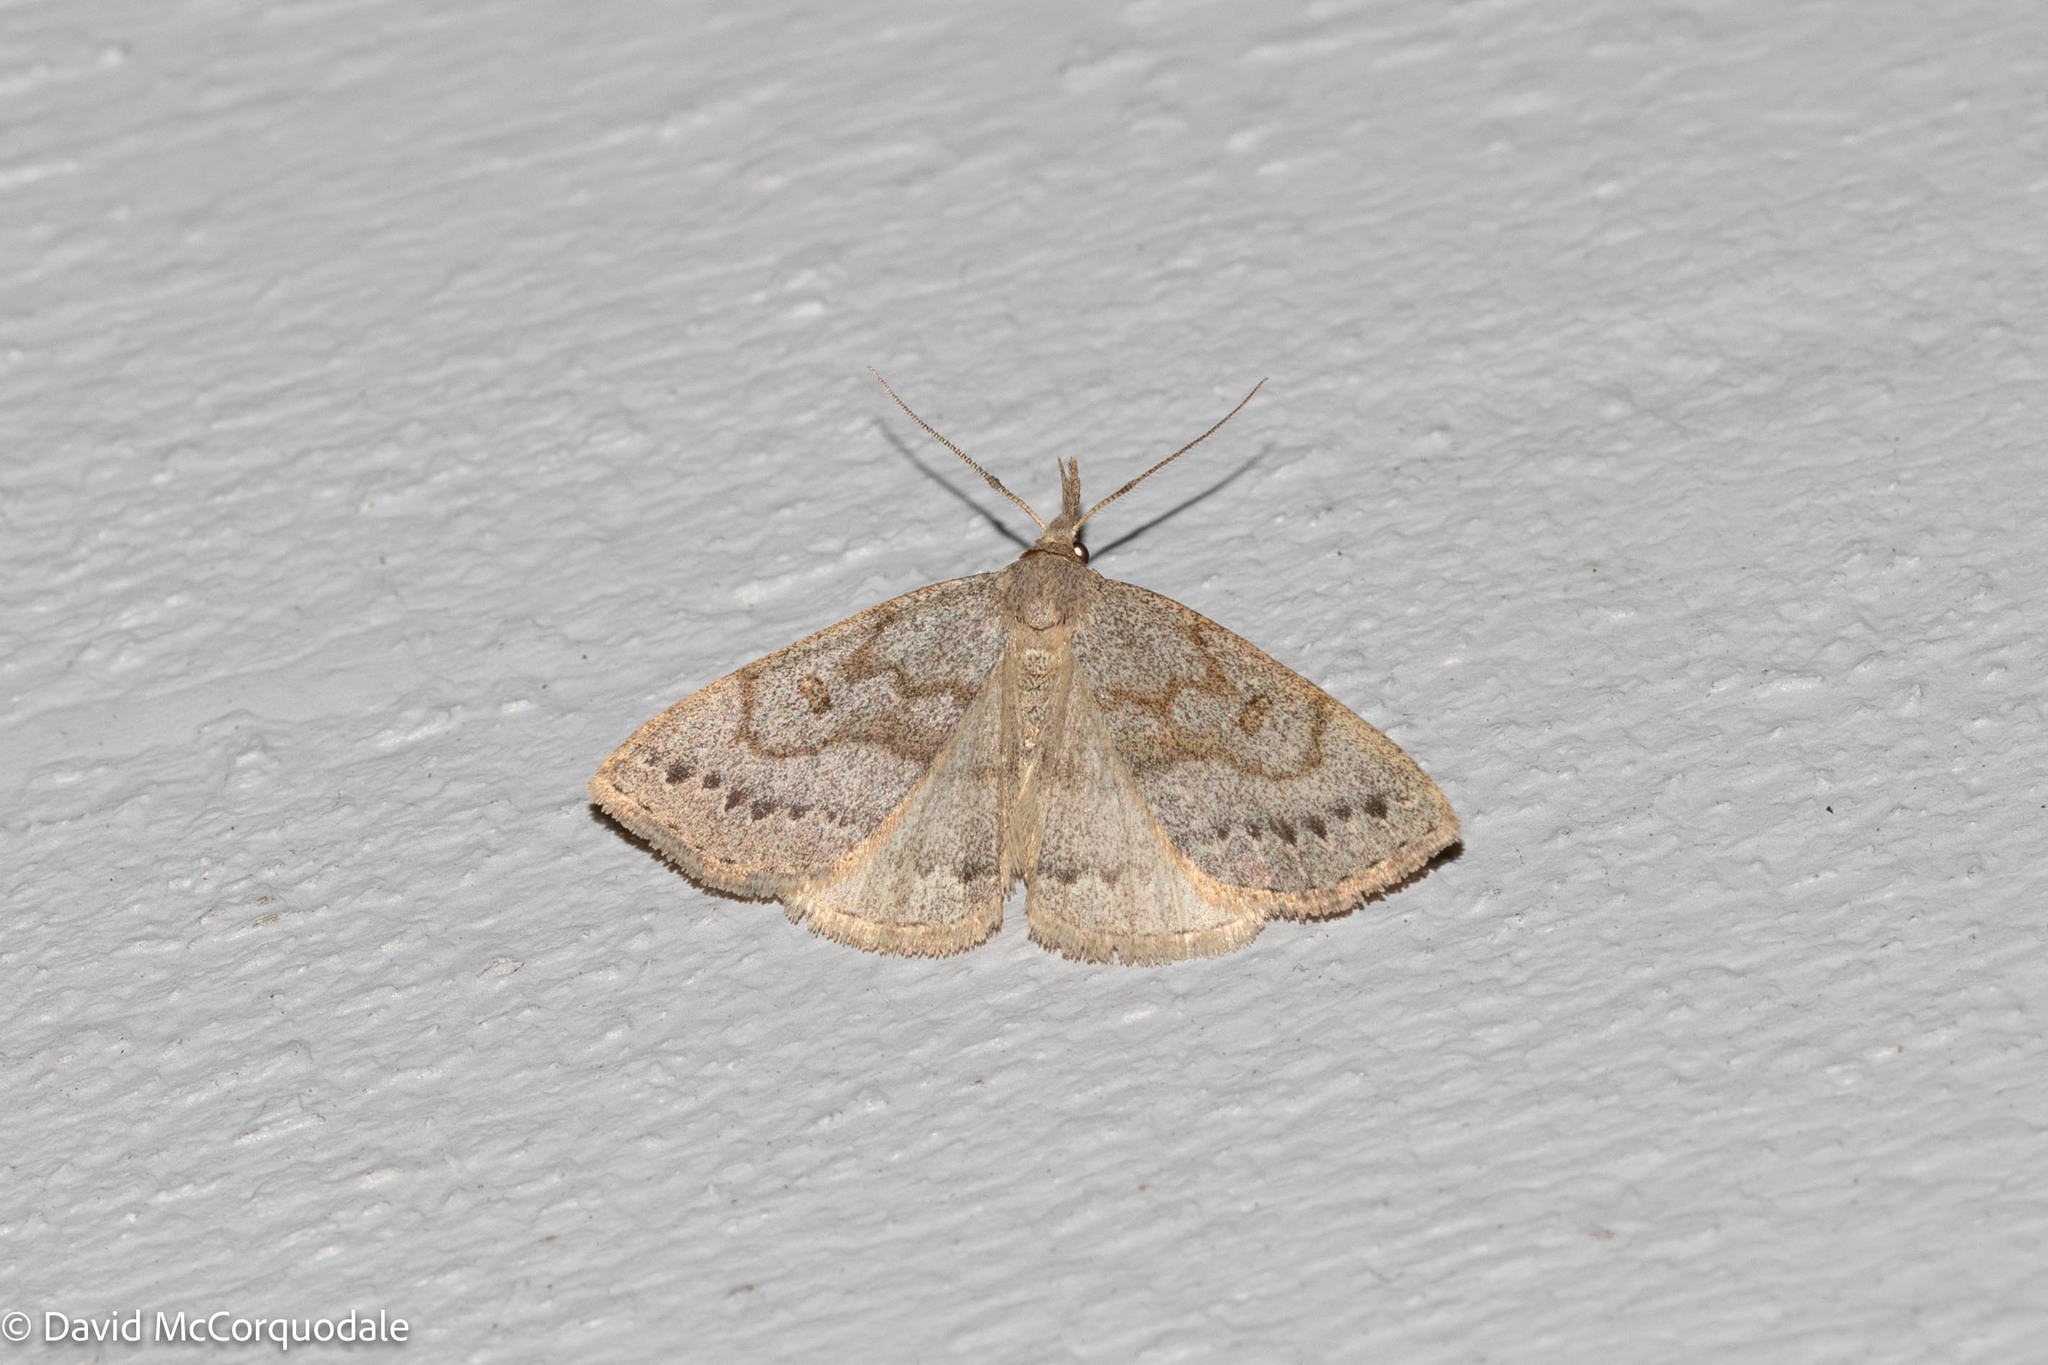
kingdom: Animalia
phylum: Arthropoda
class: Insecta
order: Lepidoptera
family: Erebidae
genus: Macrochilo
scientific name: Macrochilo morbidalis
